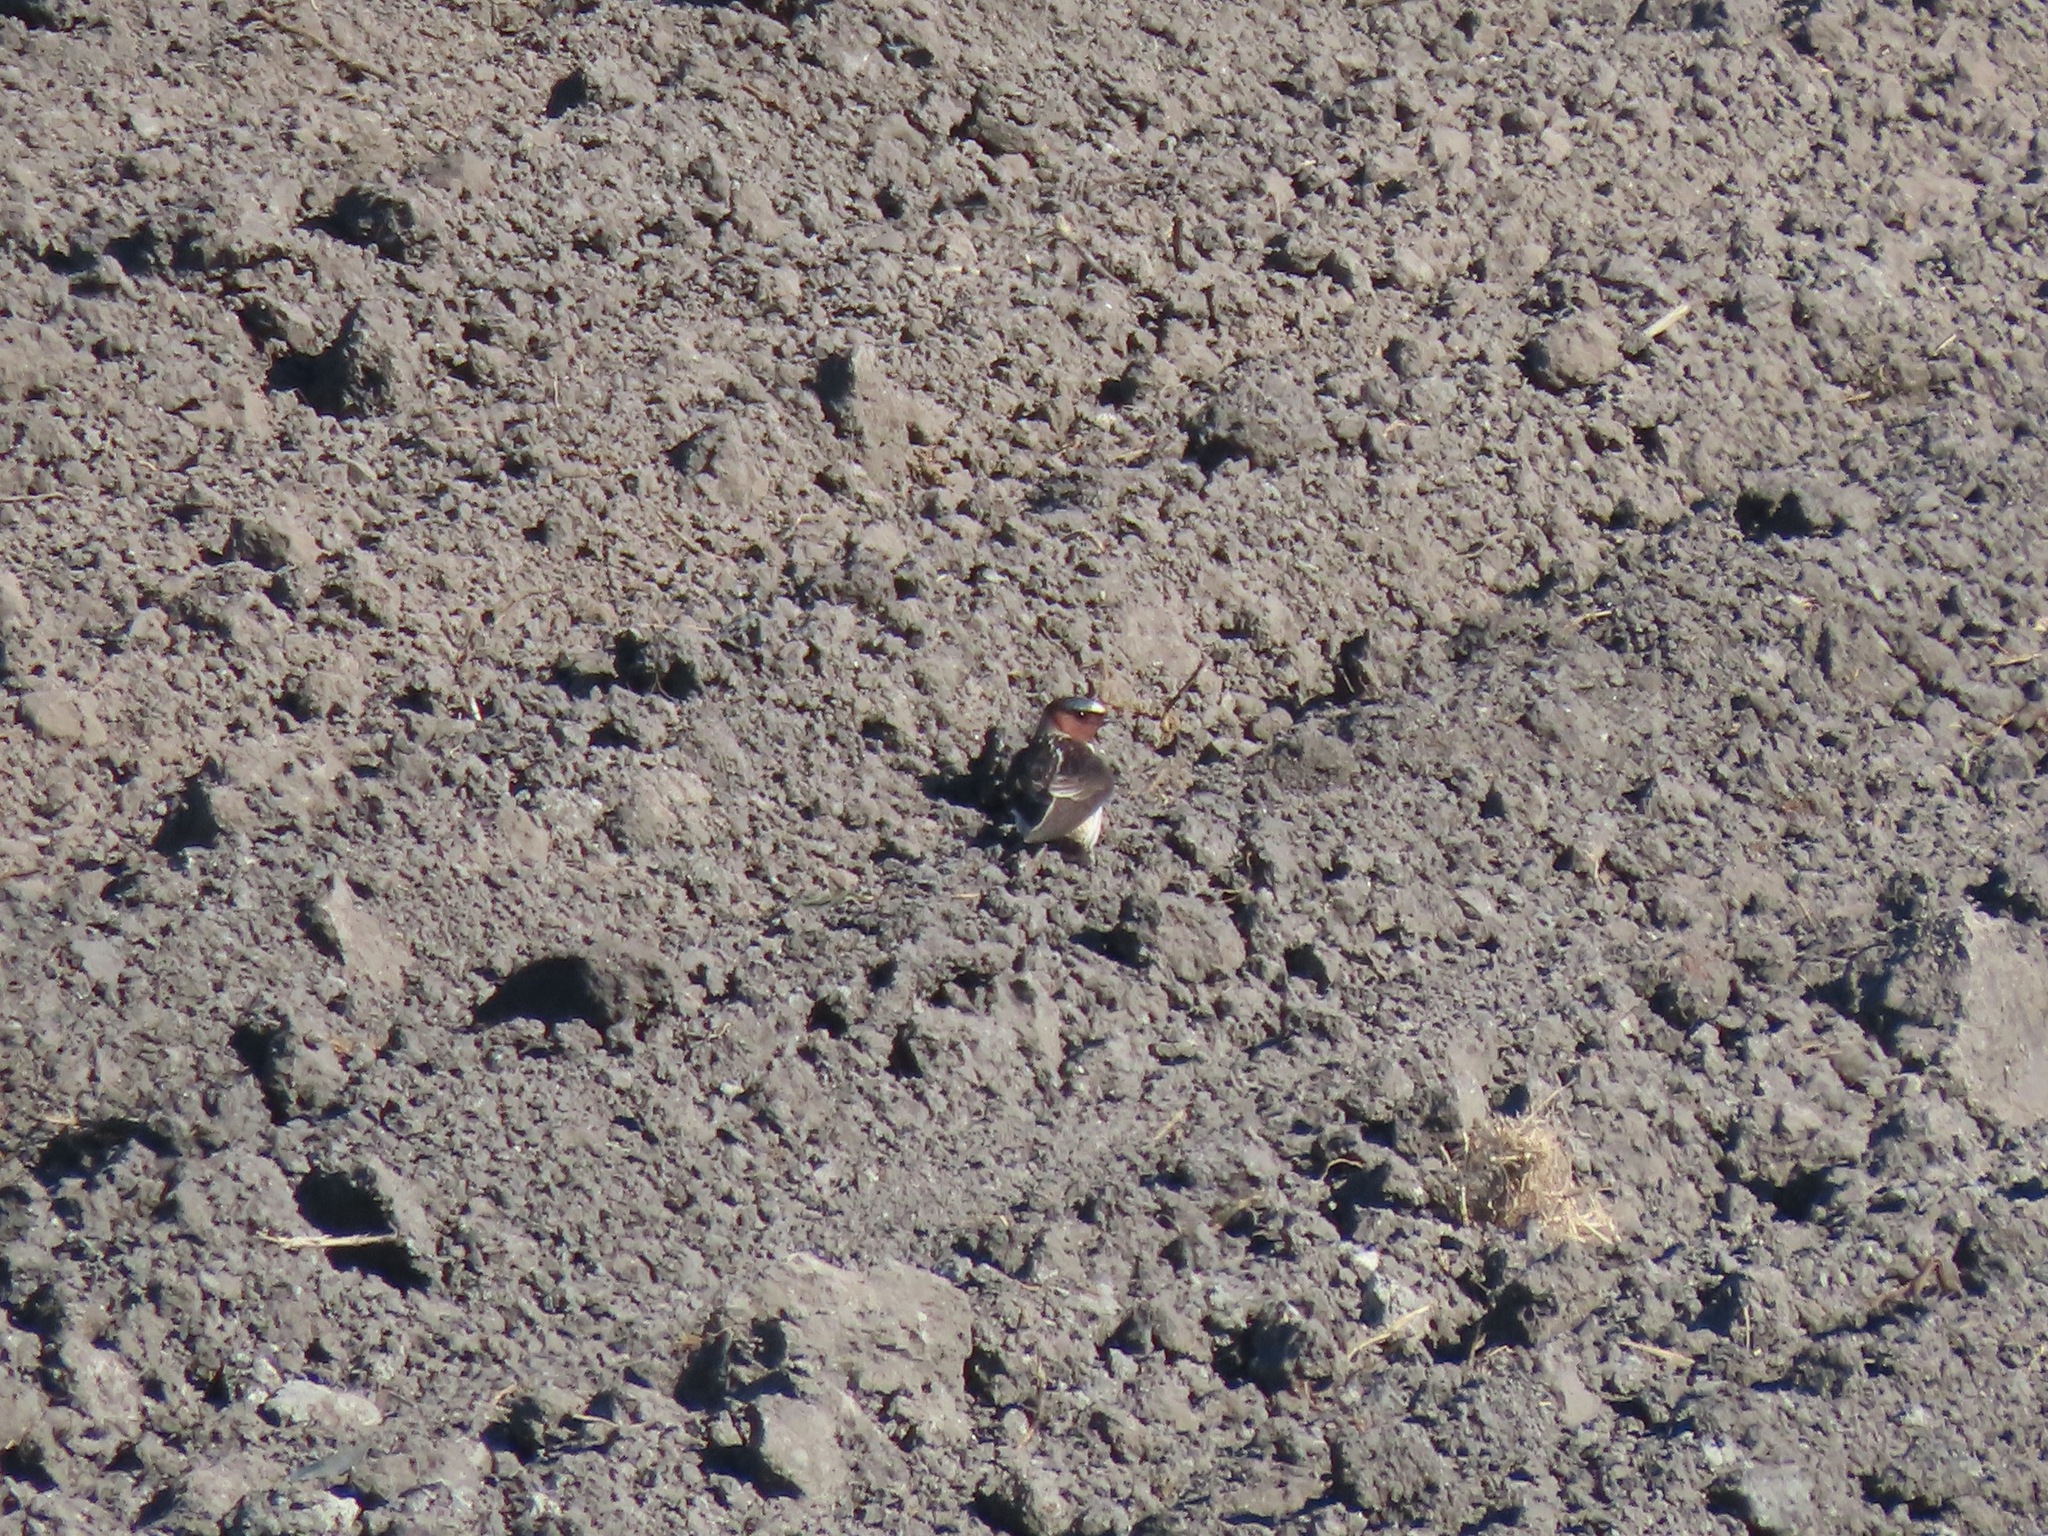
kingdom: Animalia
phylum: Chordata
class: Aves
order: Passeriformes
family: Hirundinidae
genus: Petrochelidon
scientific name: Petrochelidon pyrrhonota
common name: American cliff swallow
